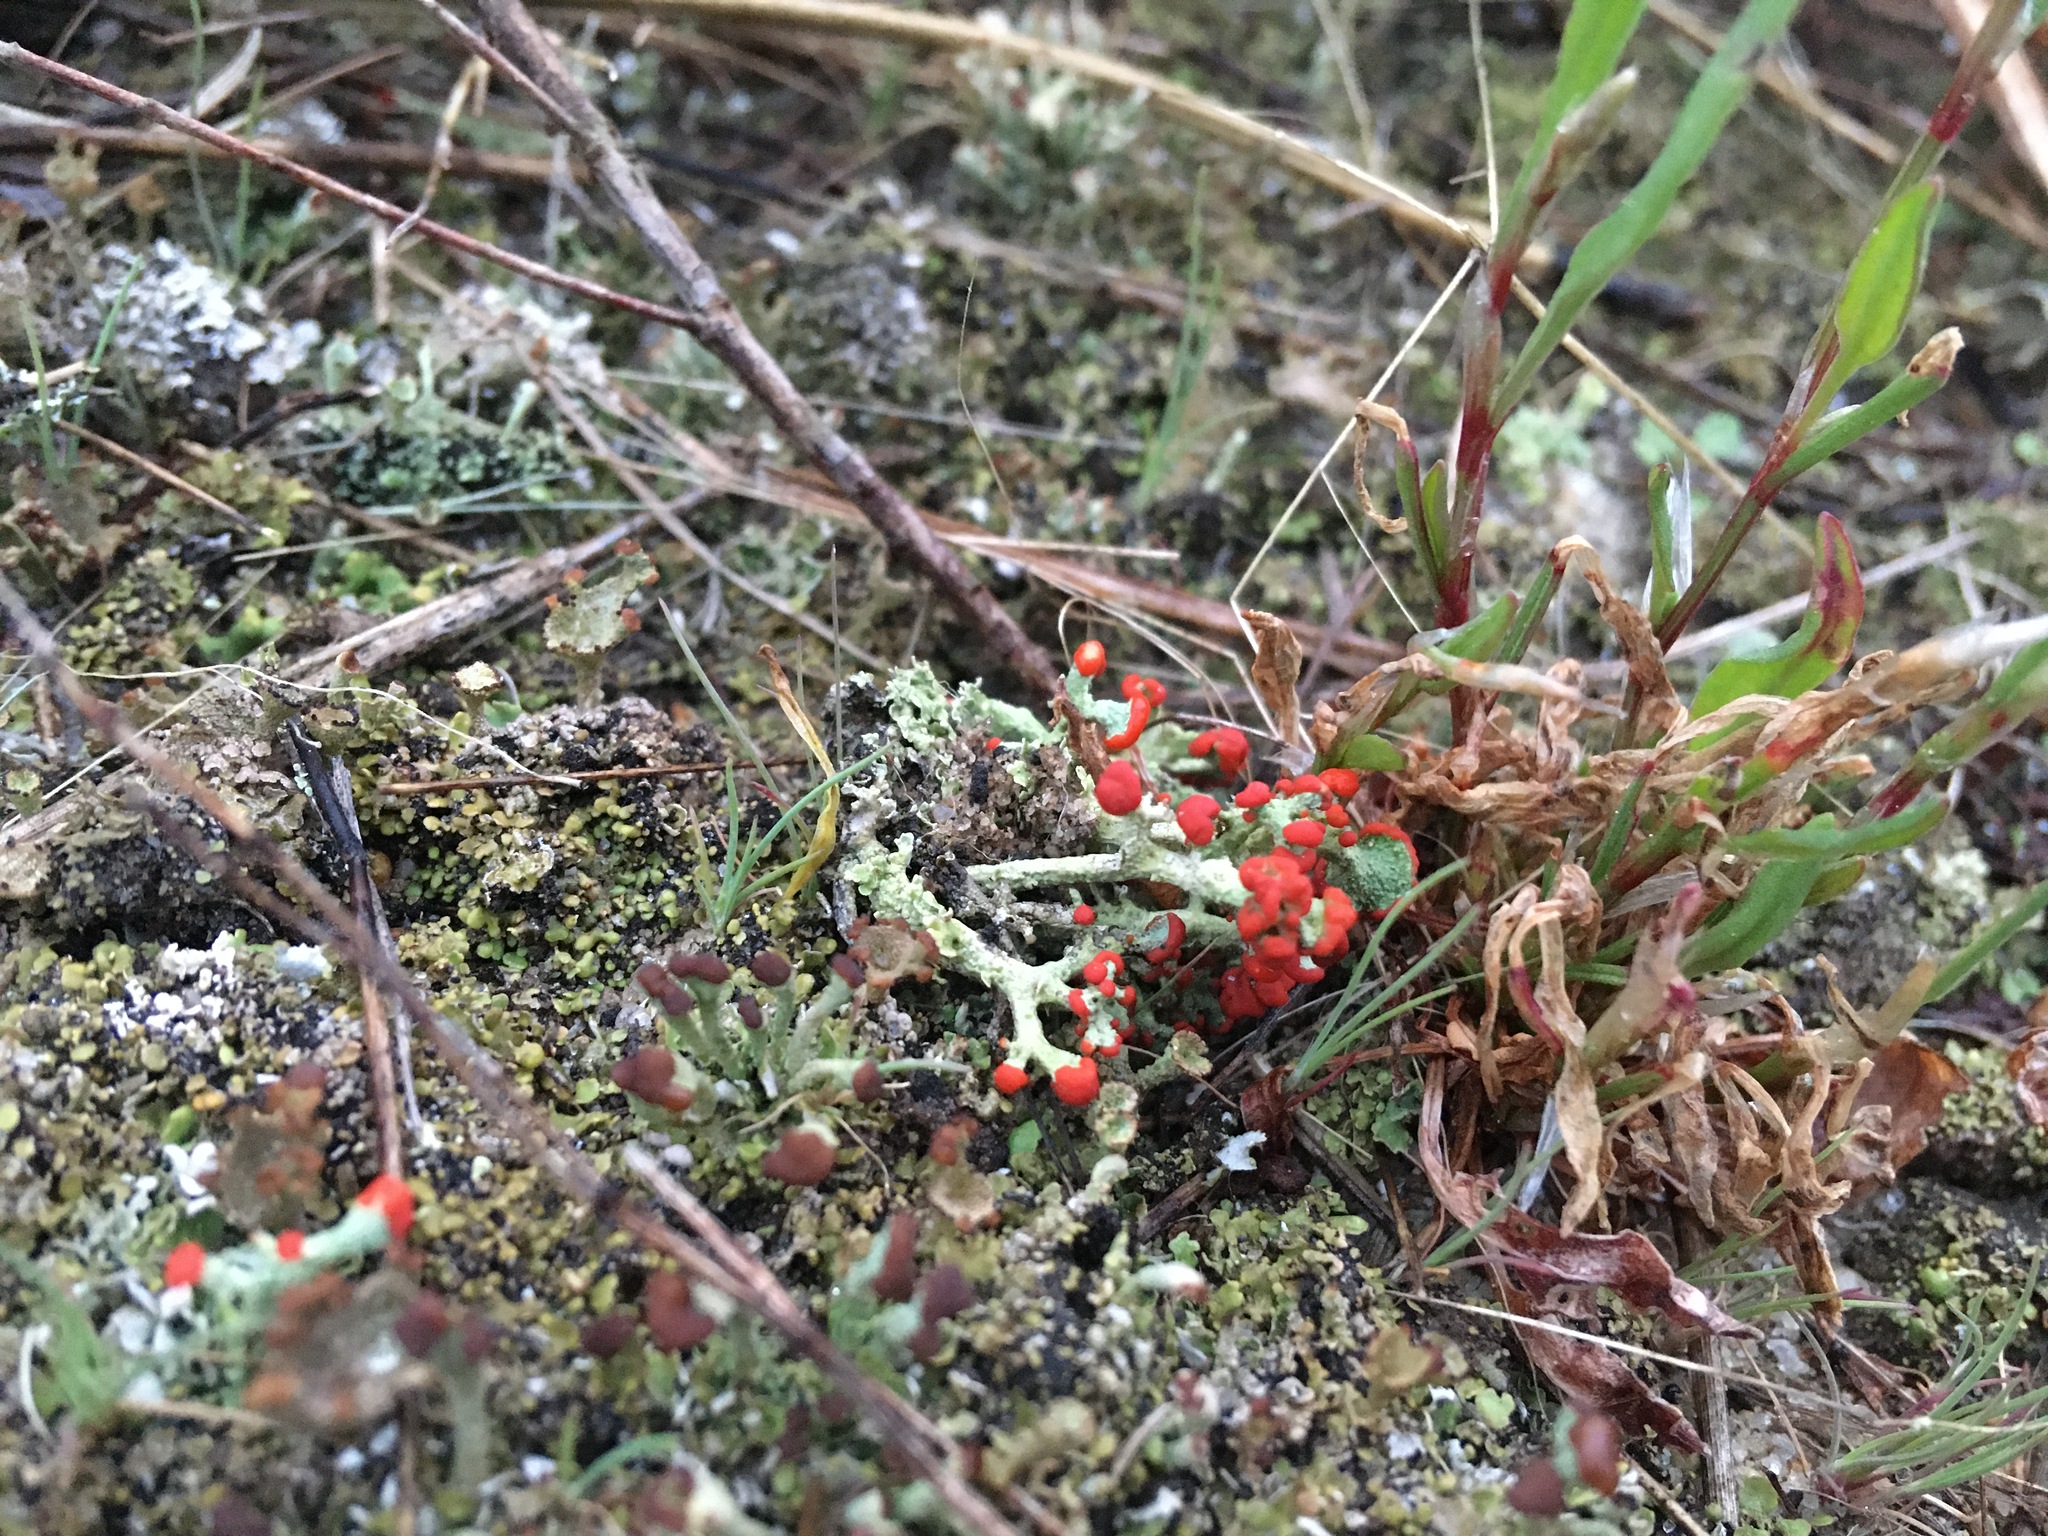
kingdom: Fungi
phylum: Ascomycota
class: Lecanoromycetes
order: Lecanorales
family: Cladoniaceae
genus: Cladonia
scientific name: Cladonia cristatella
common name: British soldier lichen
